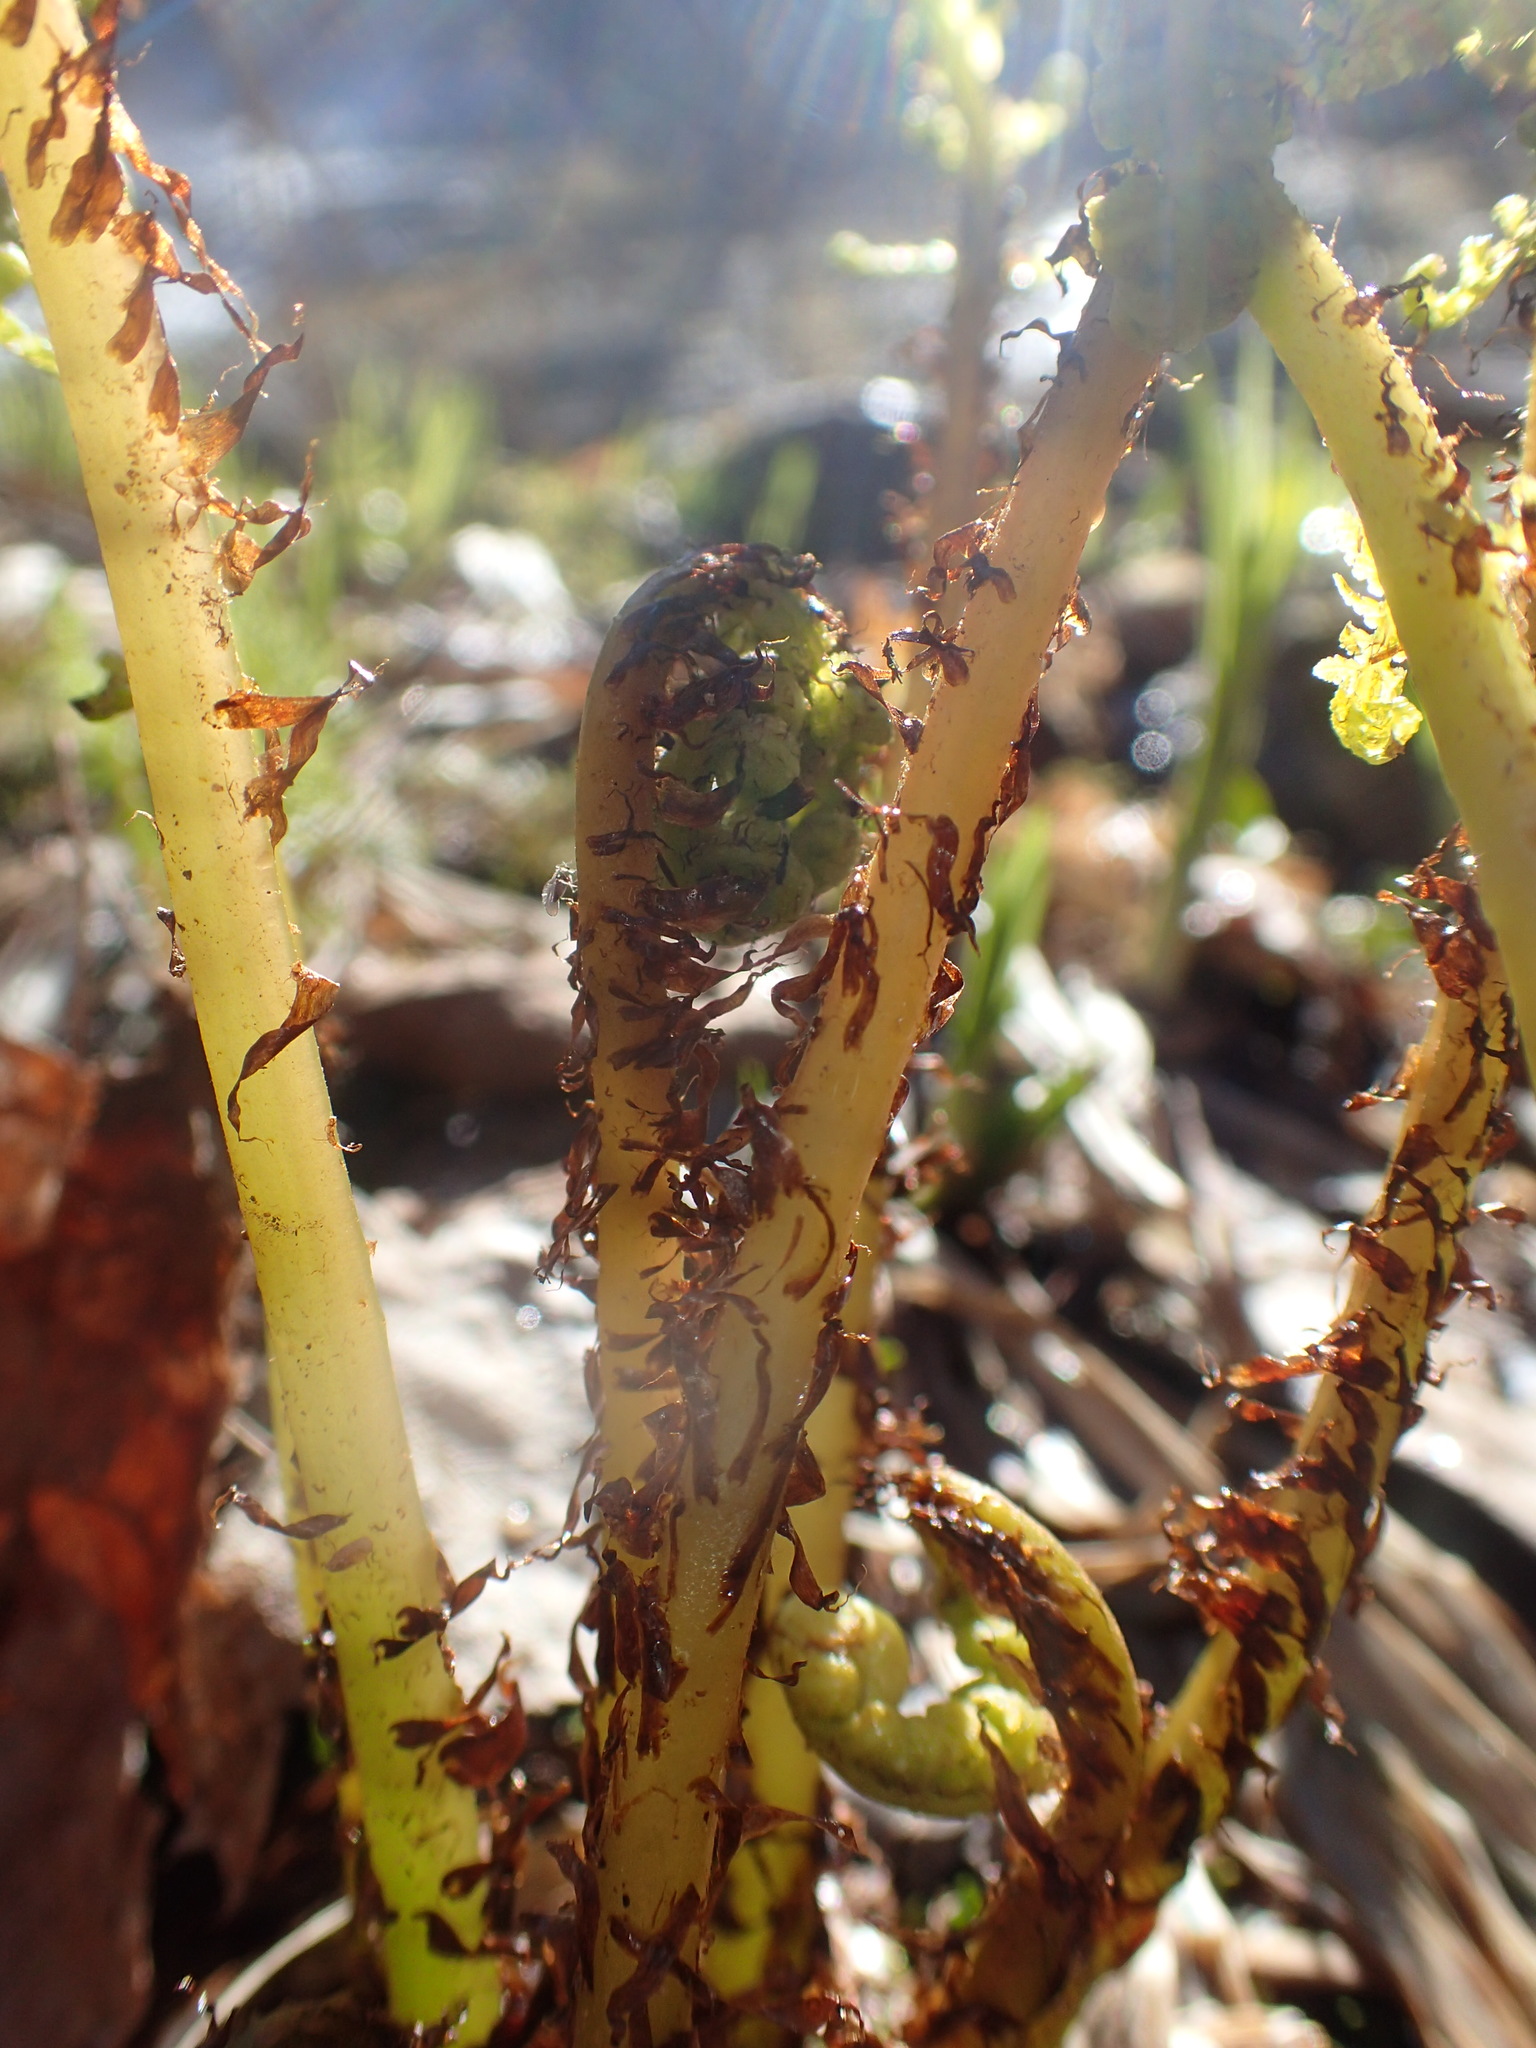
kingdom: Plantae
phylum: Tracheophyta
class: Polypodiopsida
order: Polypodiales
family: Athyriaceae
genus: Athyrium
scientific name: Athyrium angustum
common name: Northern lady fern
